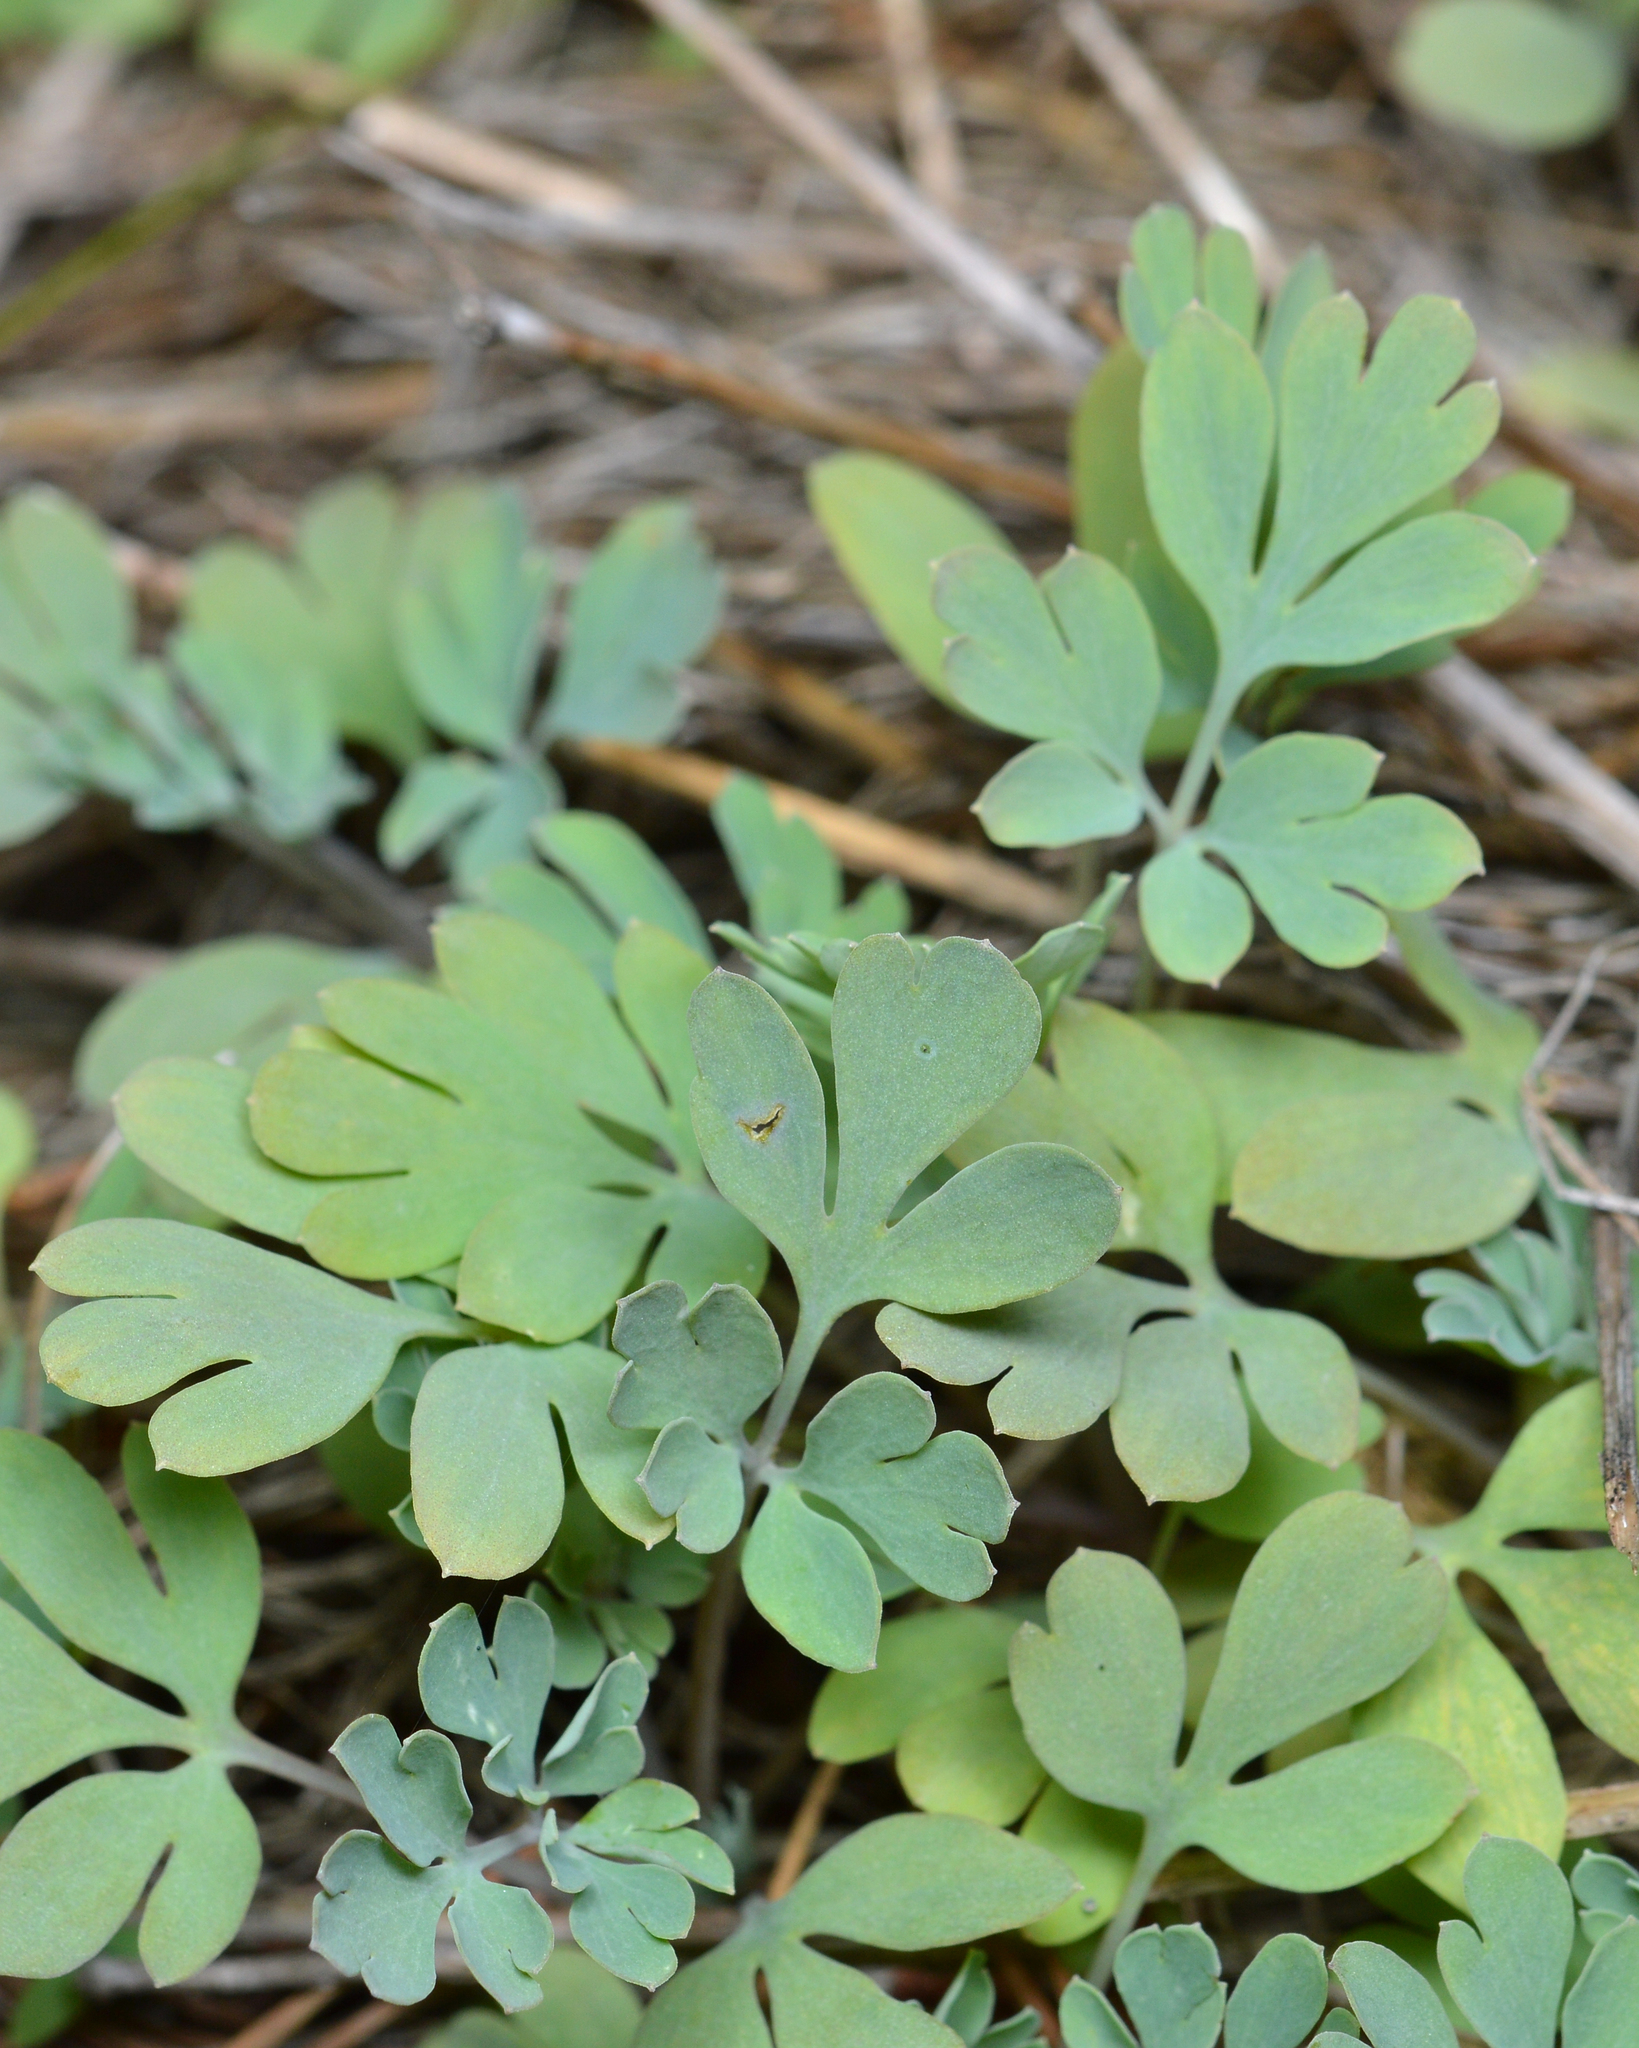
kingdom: Plantae
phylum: Tracheophyta
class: Magnoliopsida
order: Ranunculales
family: Papaveraceae
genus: Capnoides
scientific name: Capnoides sempervirens
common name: Rock harlequin
